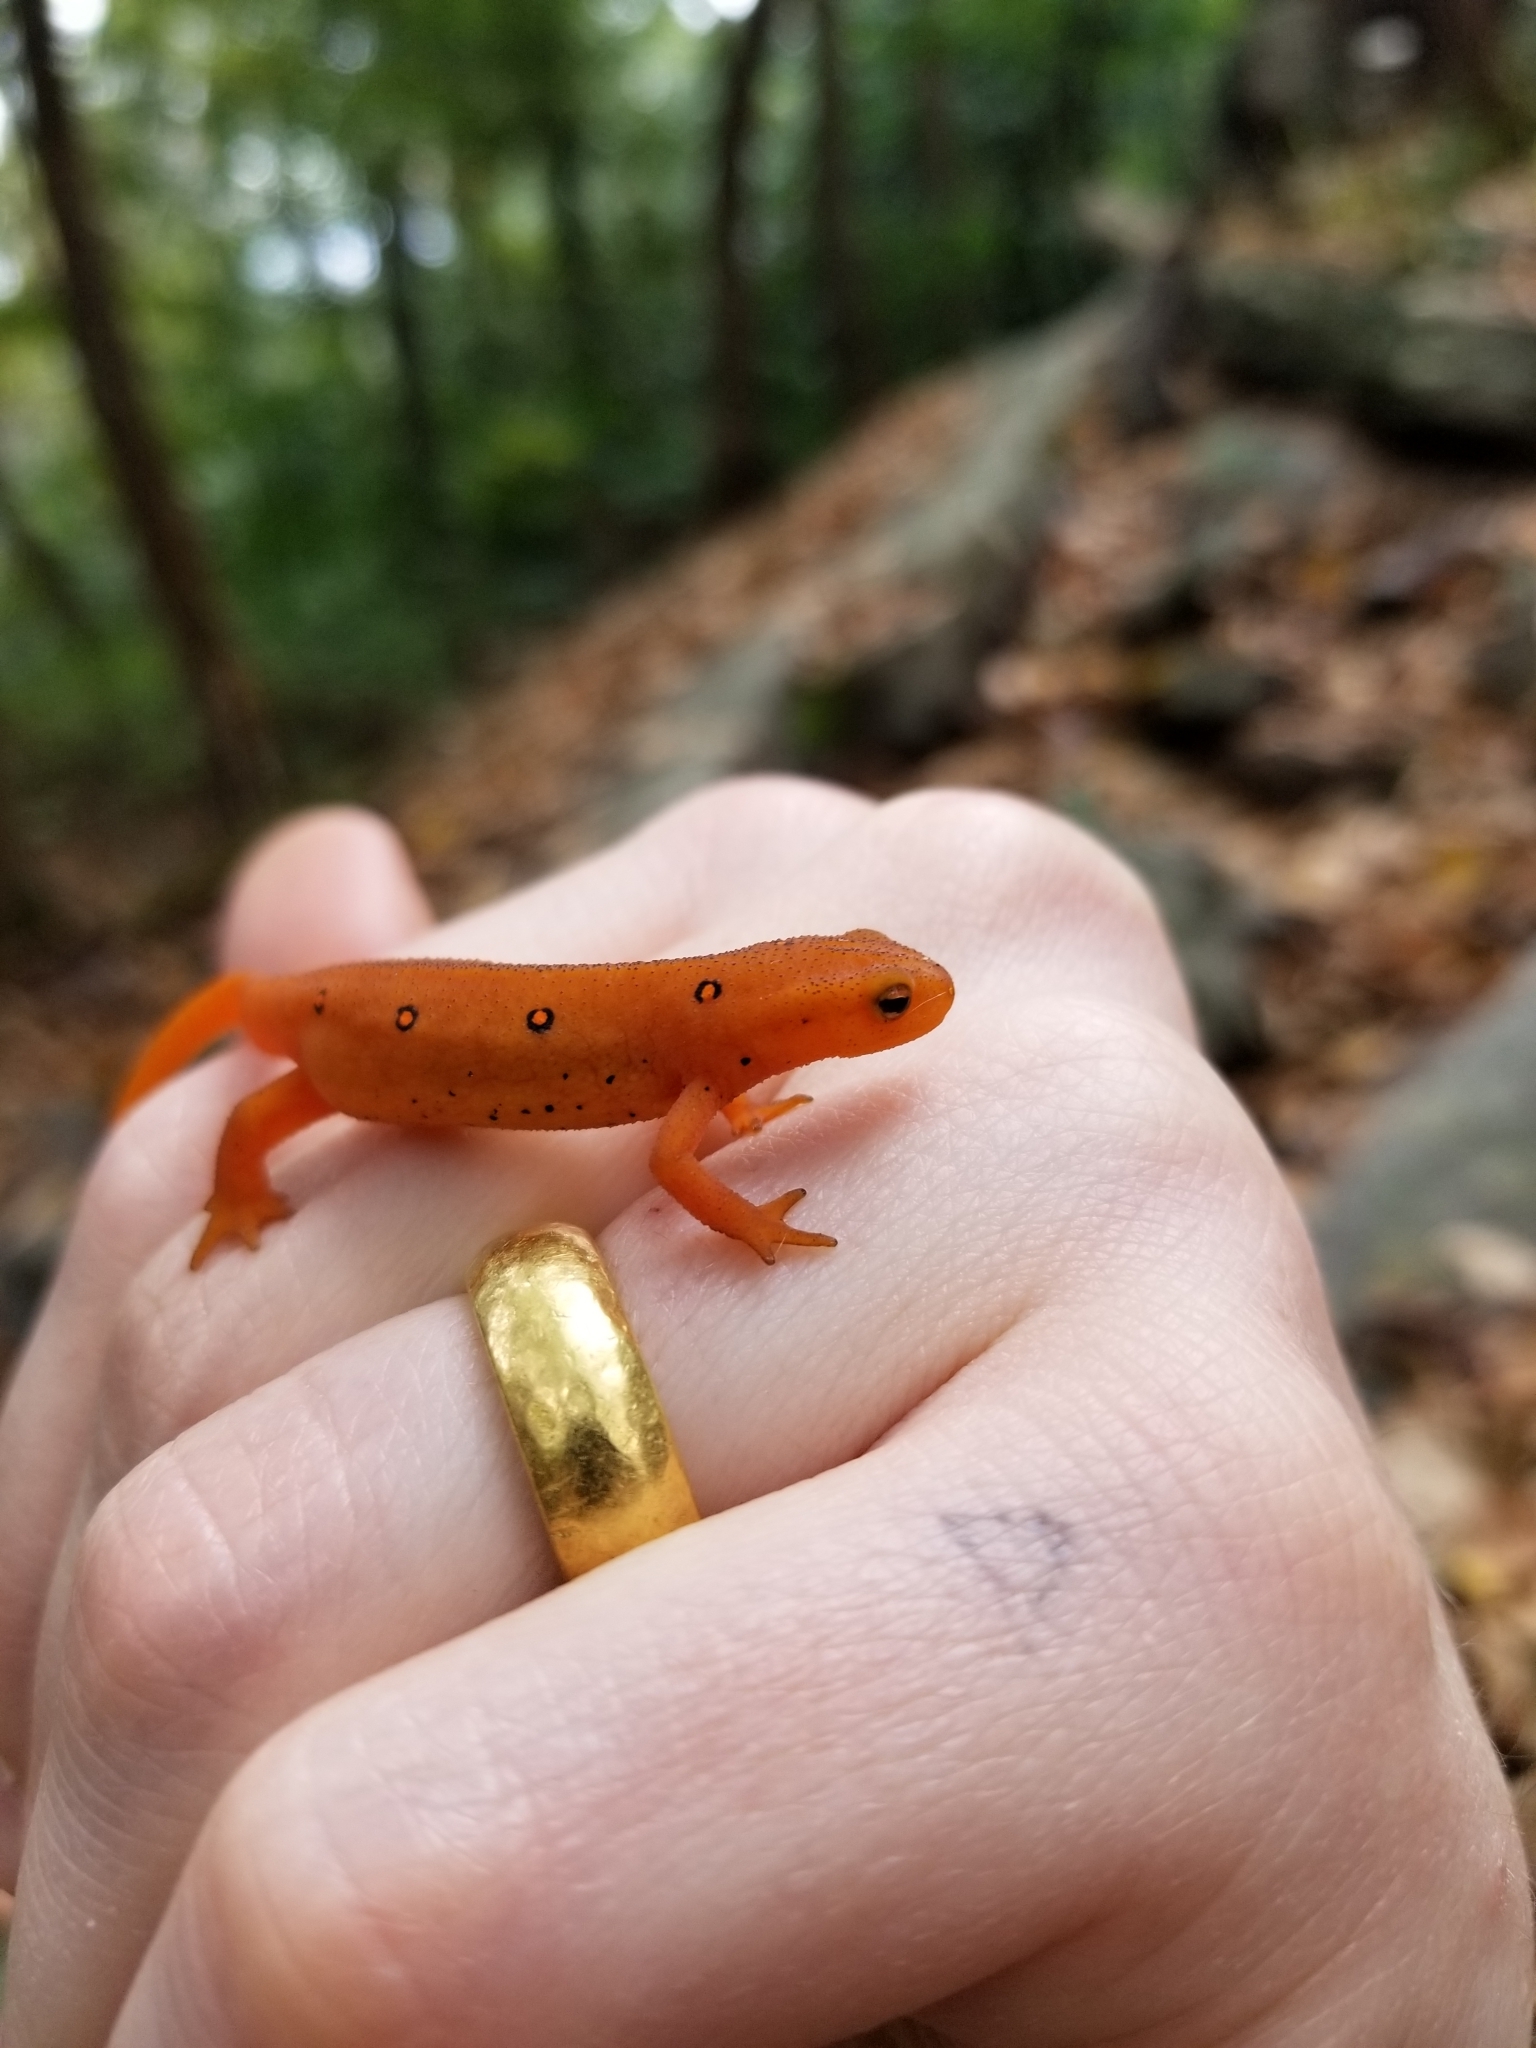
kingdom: Animalia
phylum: Chordata
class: Amphibia
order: Caudata
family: Salamandridae
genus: Notophthalmus
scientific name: Notophthalmus viridescens
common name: Eastern newt
